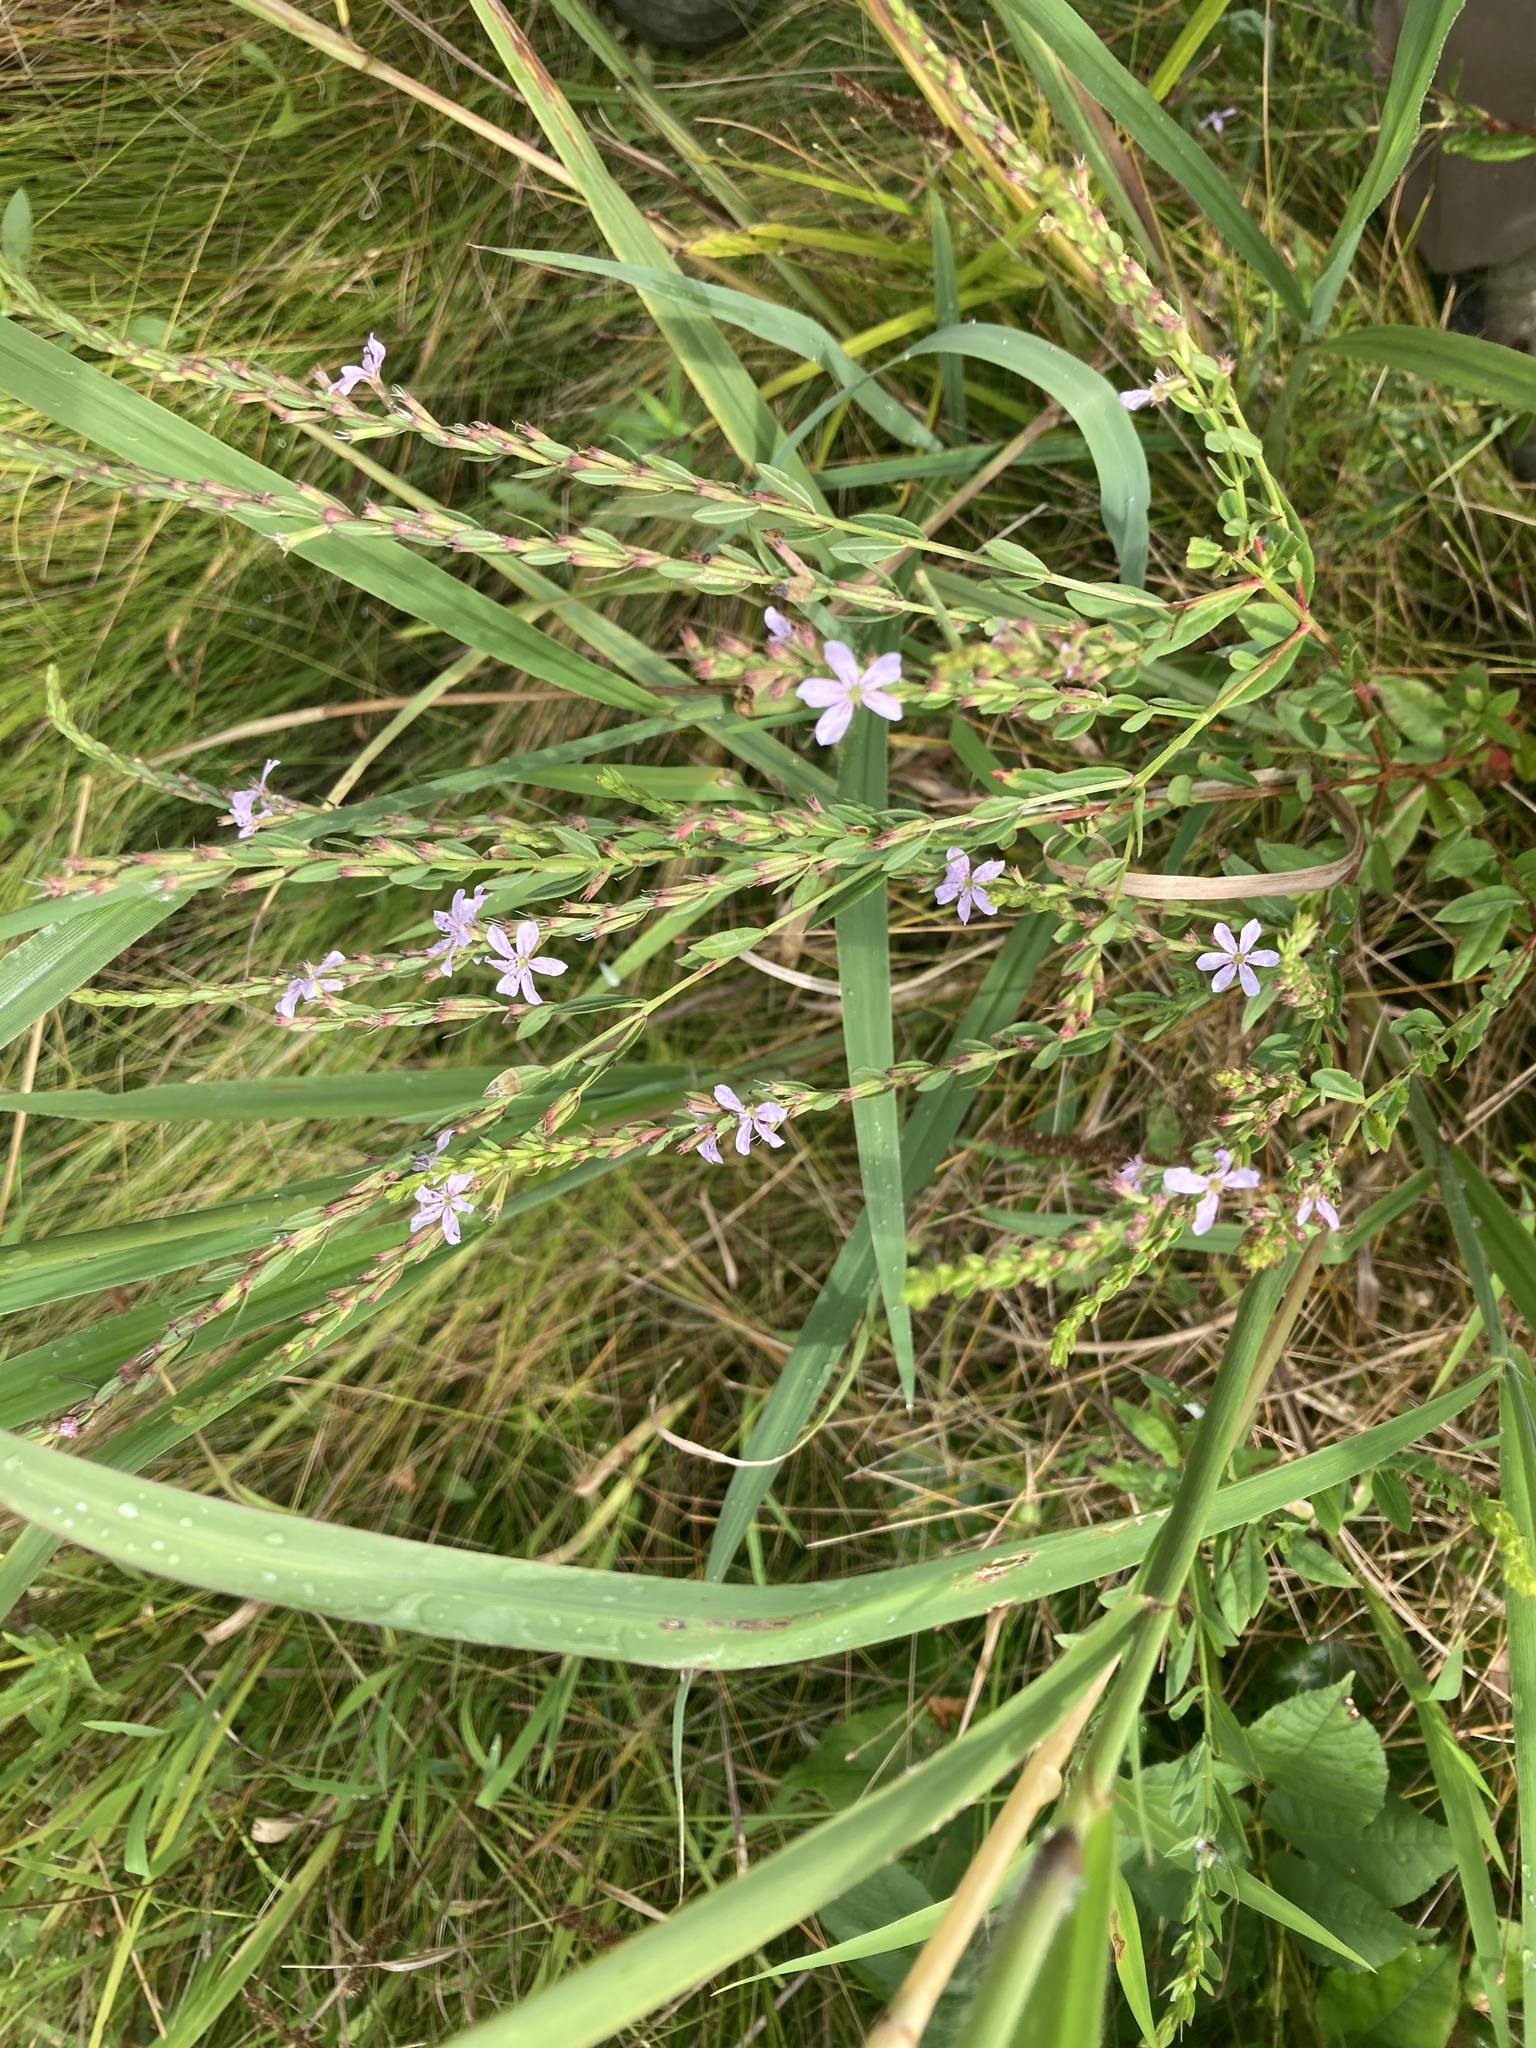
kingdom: Plantae
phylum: Tracheophyta
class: Magnoliopsida
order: Myrtales
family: Lythraceae
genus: Lythrum
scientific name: Lythrum alatum
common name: Winged loosestrife
